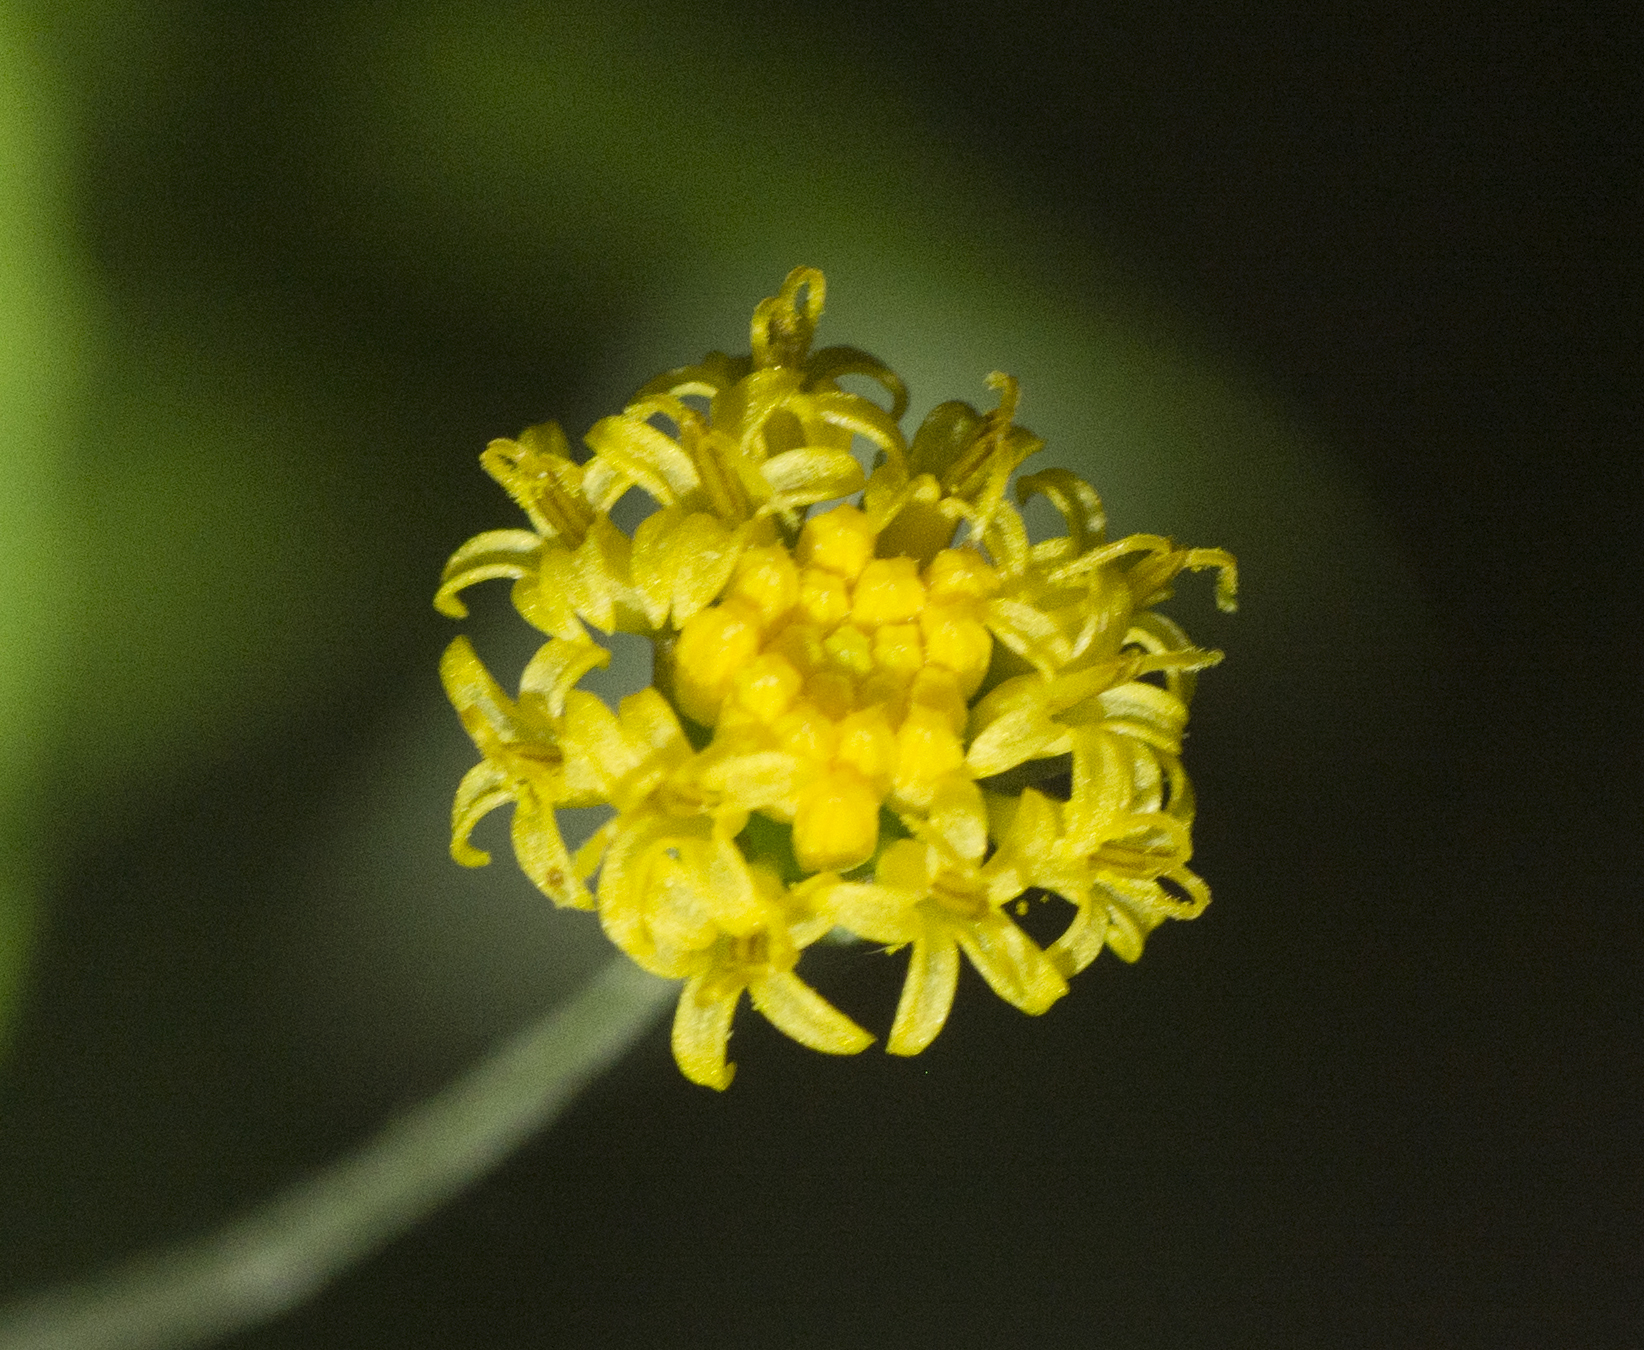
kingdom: Plantae
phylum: Tracheophyta
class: Magnoliopsida
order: Asterales
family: Asteraceae
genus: Acomis
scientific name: Acomis acoma
